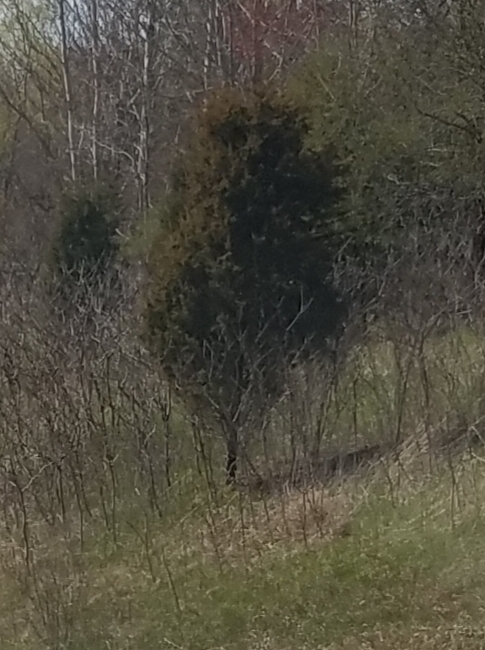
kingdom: Plantae
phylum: Tracheophyta
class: Pinopsida
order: Pinales
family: Cupressaceae
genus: Juniperus
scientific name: Juniperus virginiana
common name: Red juniper
